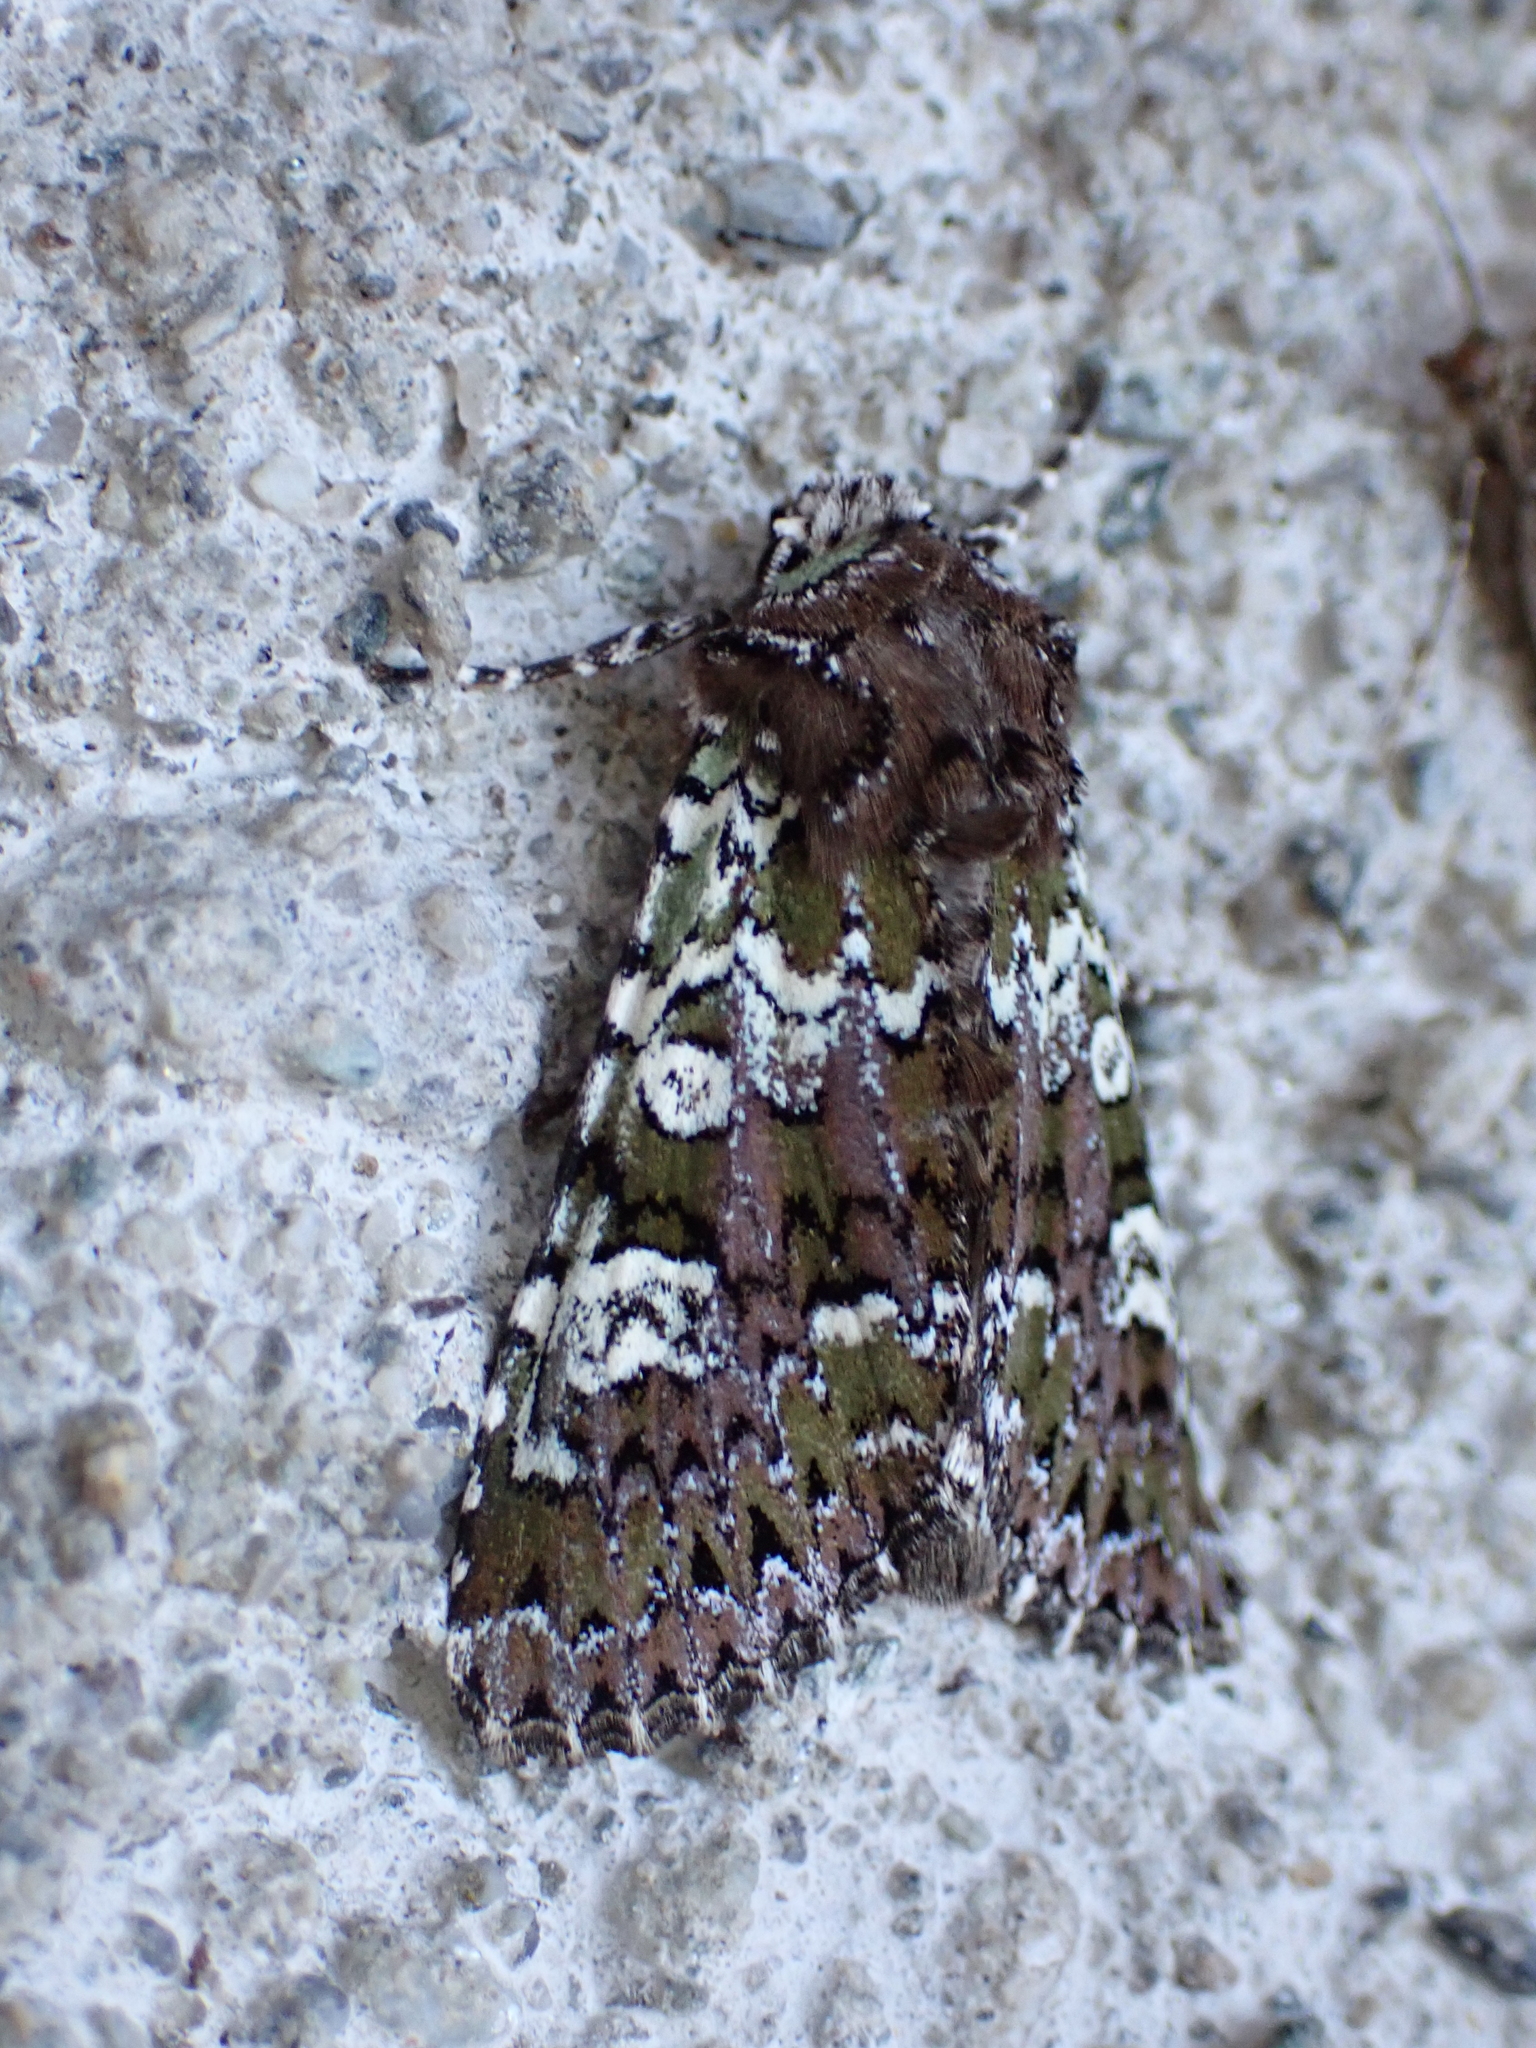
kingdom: Animalia
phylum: Arthropoda
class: Insecta
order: Lepidoptera
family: Noctuidae
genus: Crypsedra
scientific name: Crypsedra gemmea
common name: Cameo
